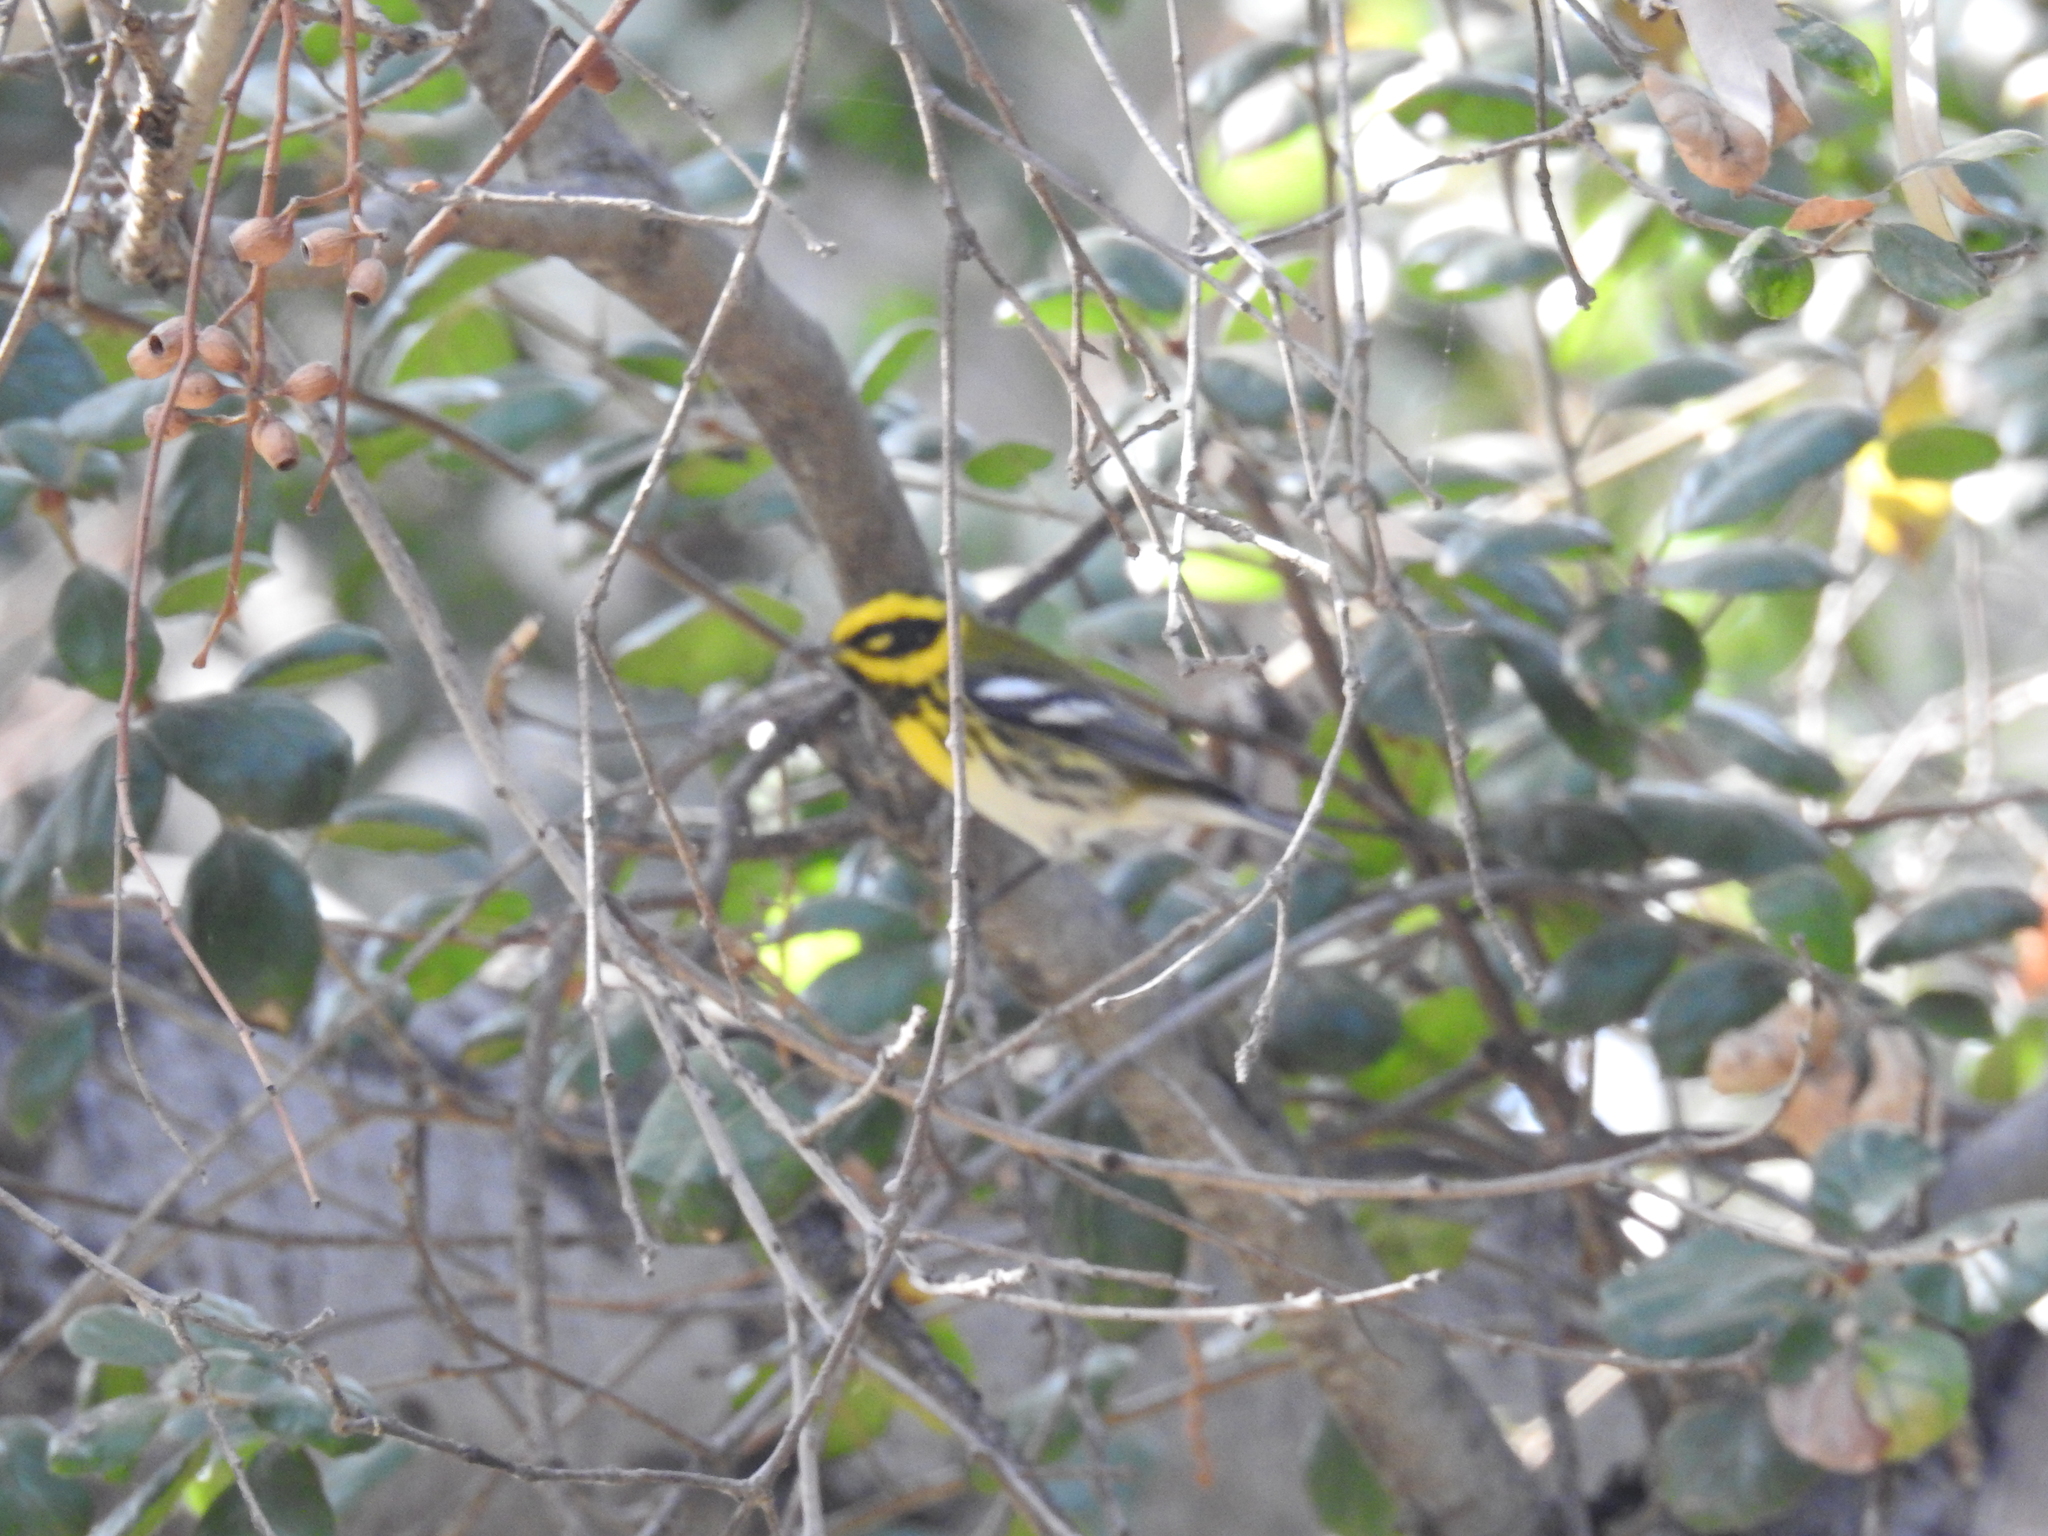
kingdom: Animalia
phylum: Chordata
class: Aves
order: Passeriformes
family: Parulidae
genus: Setophaga
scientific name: Setophaga townsendi
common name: Townsend's warbler
